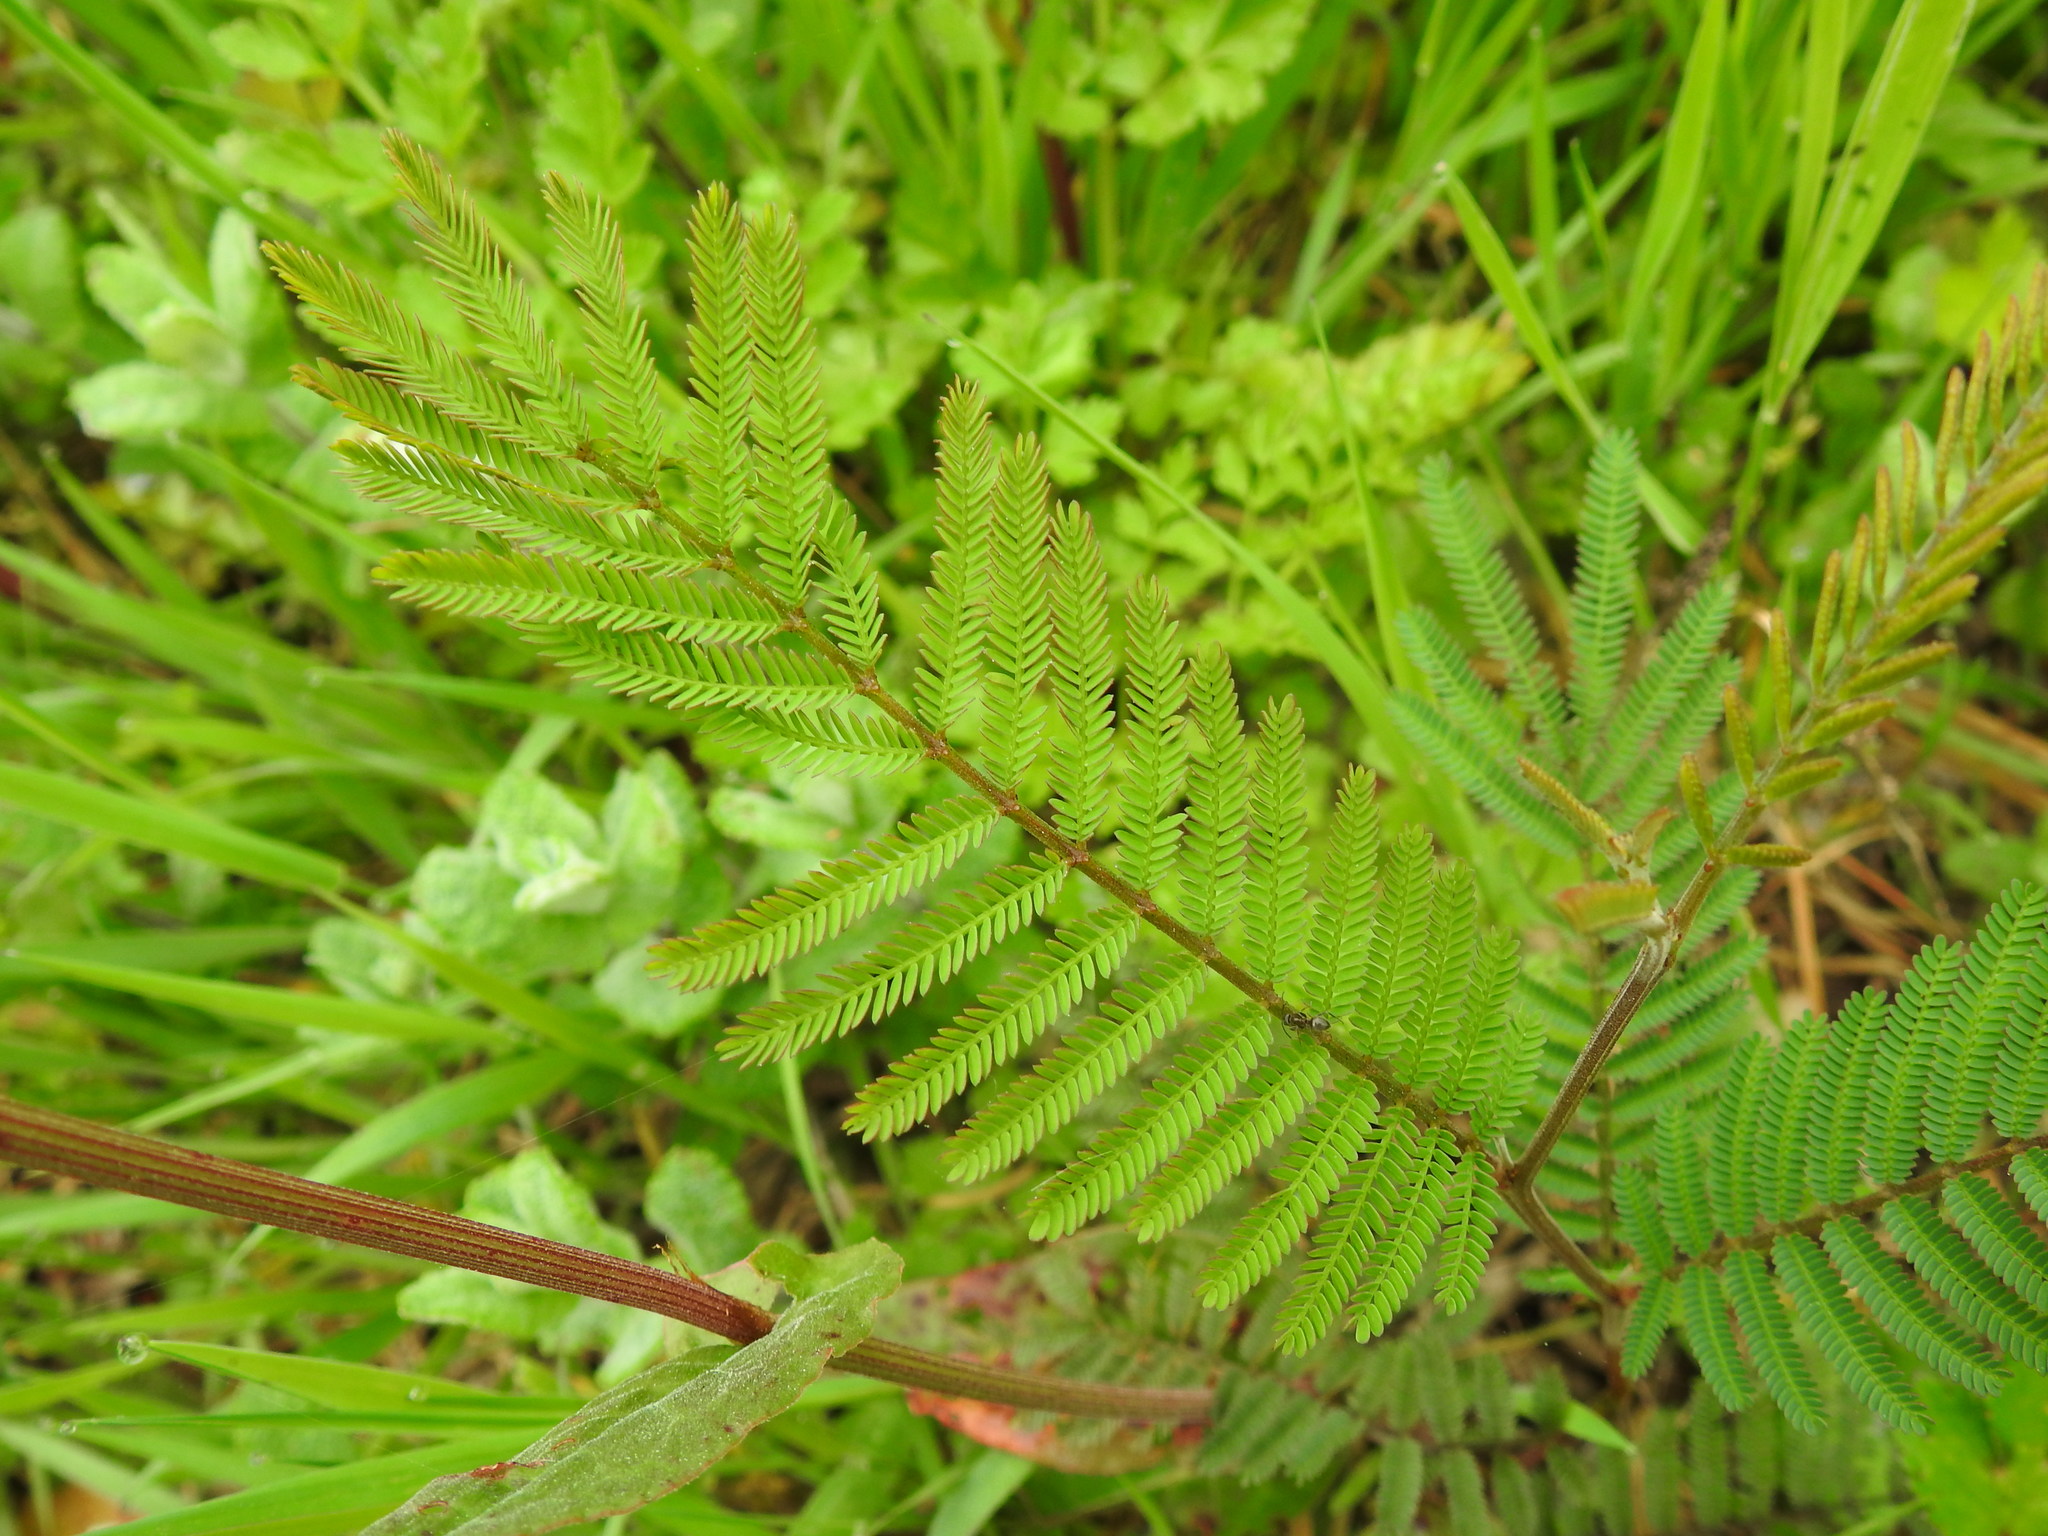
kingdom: Plantae
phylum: Tracheophyta
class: Magnoliopsida
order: Fabales
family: Fabaceae
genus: Acacia
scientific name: Acacia dealbata
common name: Silver wattle
